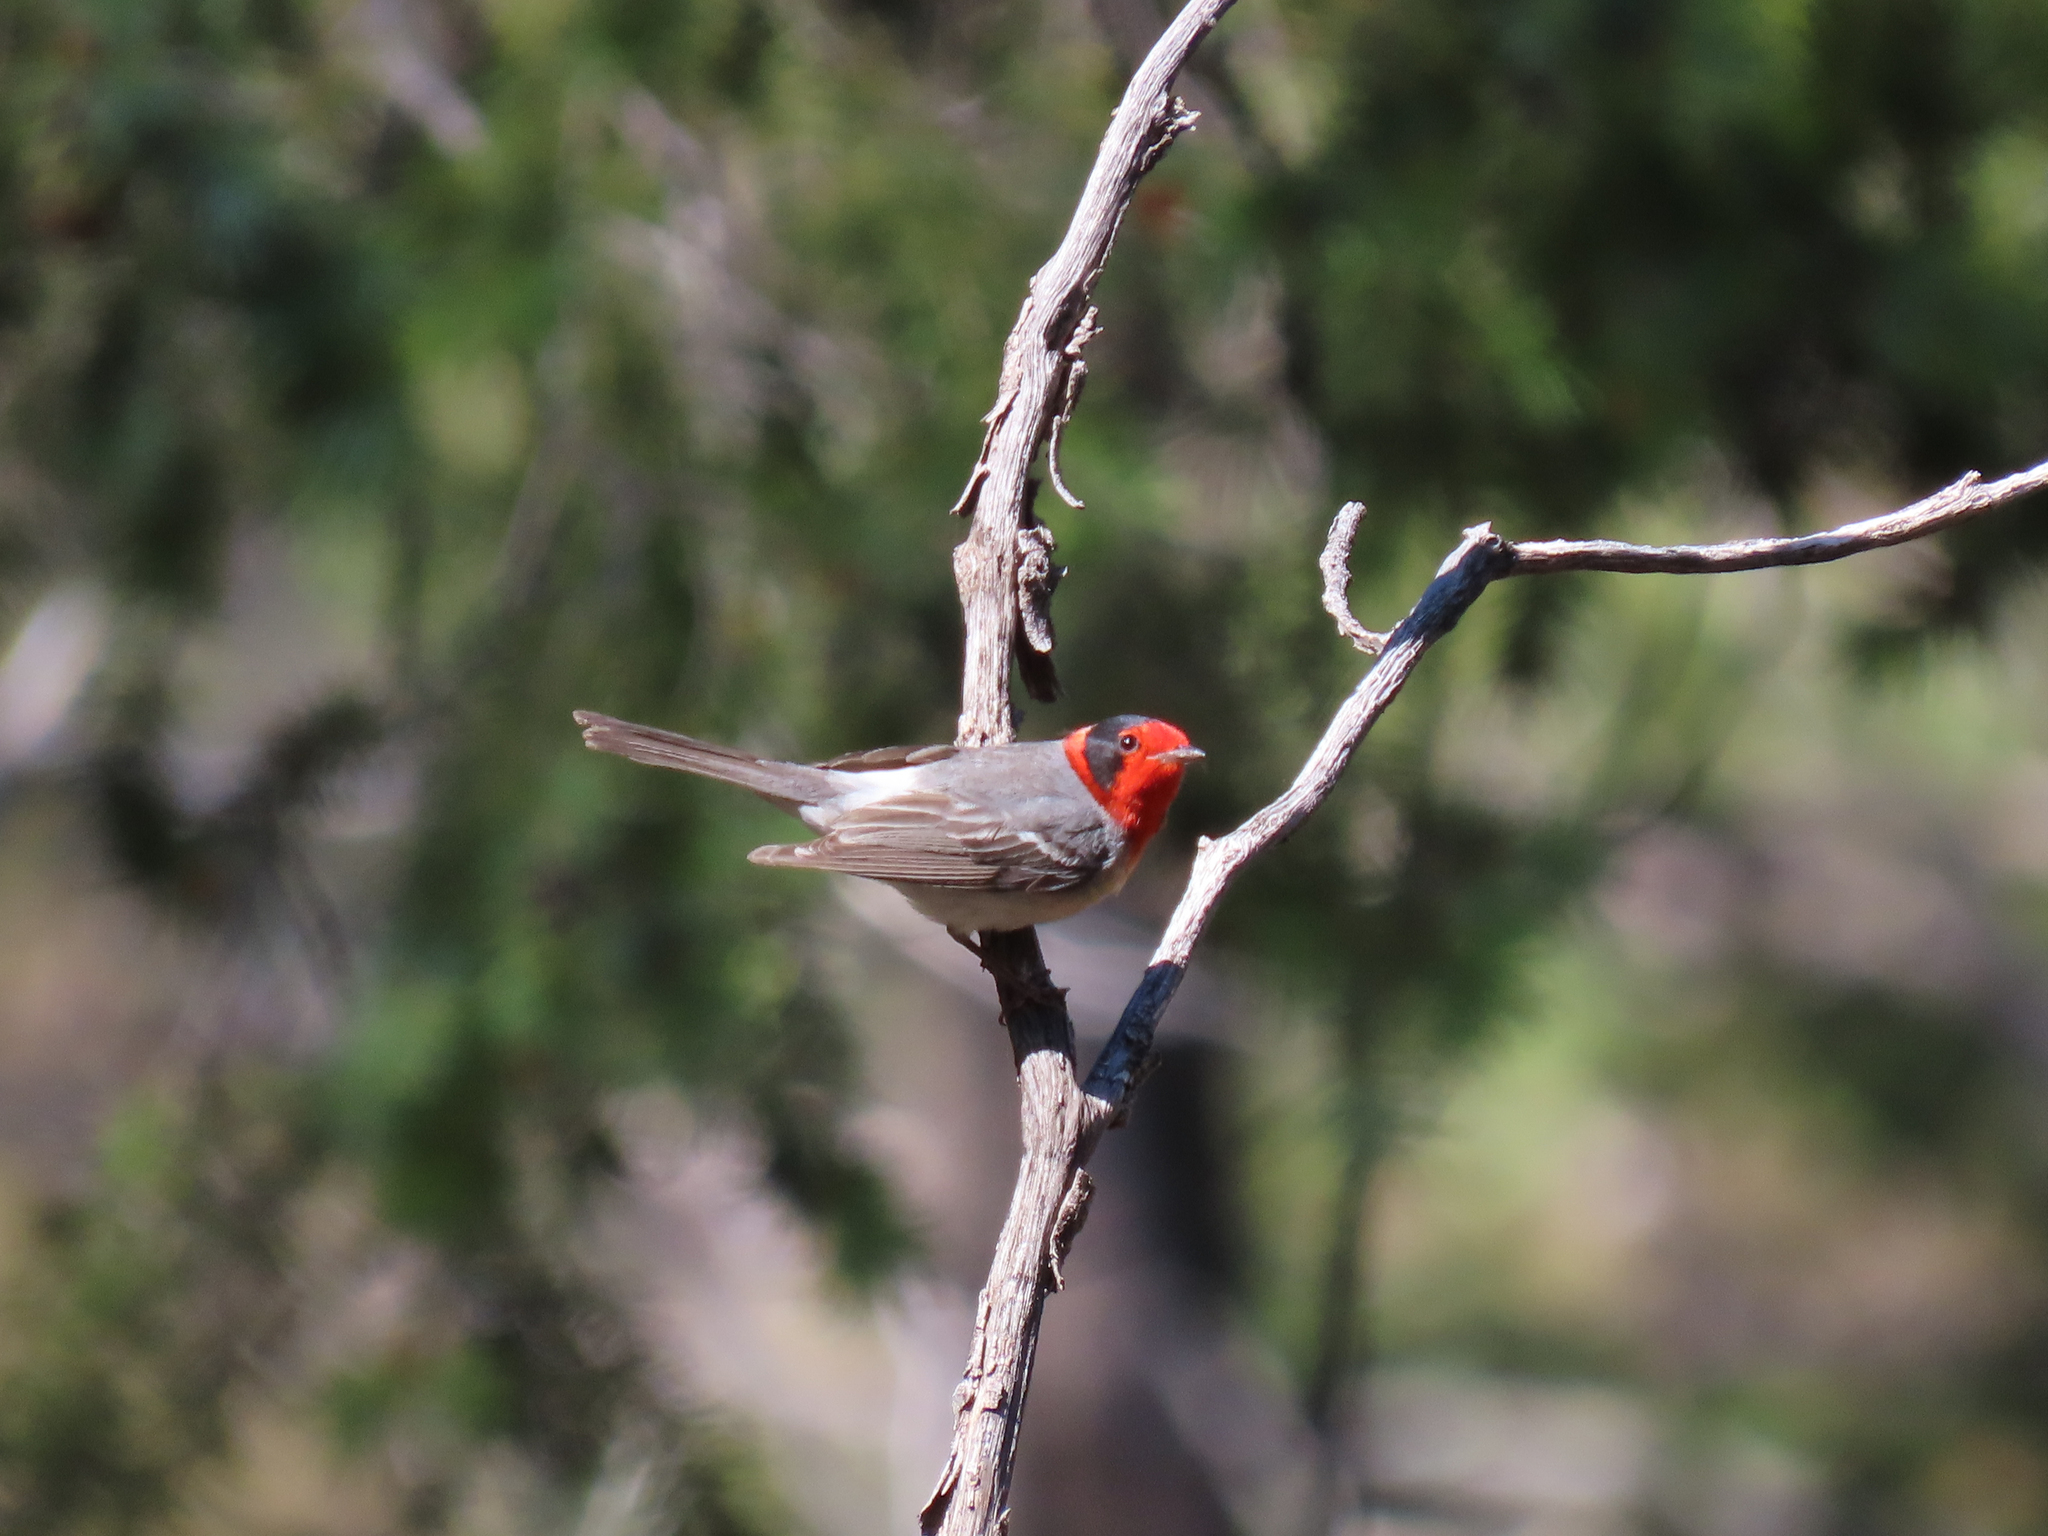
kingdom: Animalia
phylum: Chordata
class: Aves
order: Passeriformes
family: Parulidae
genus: Cardellina
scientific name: Cardellina rubrifrons
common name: Red-faced warbler
